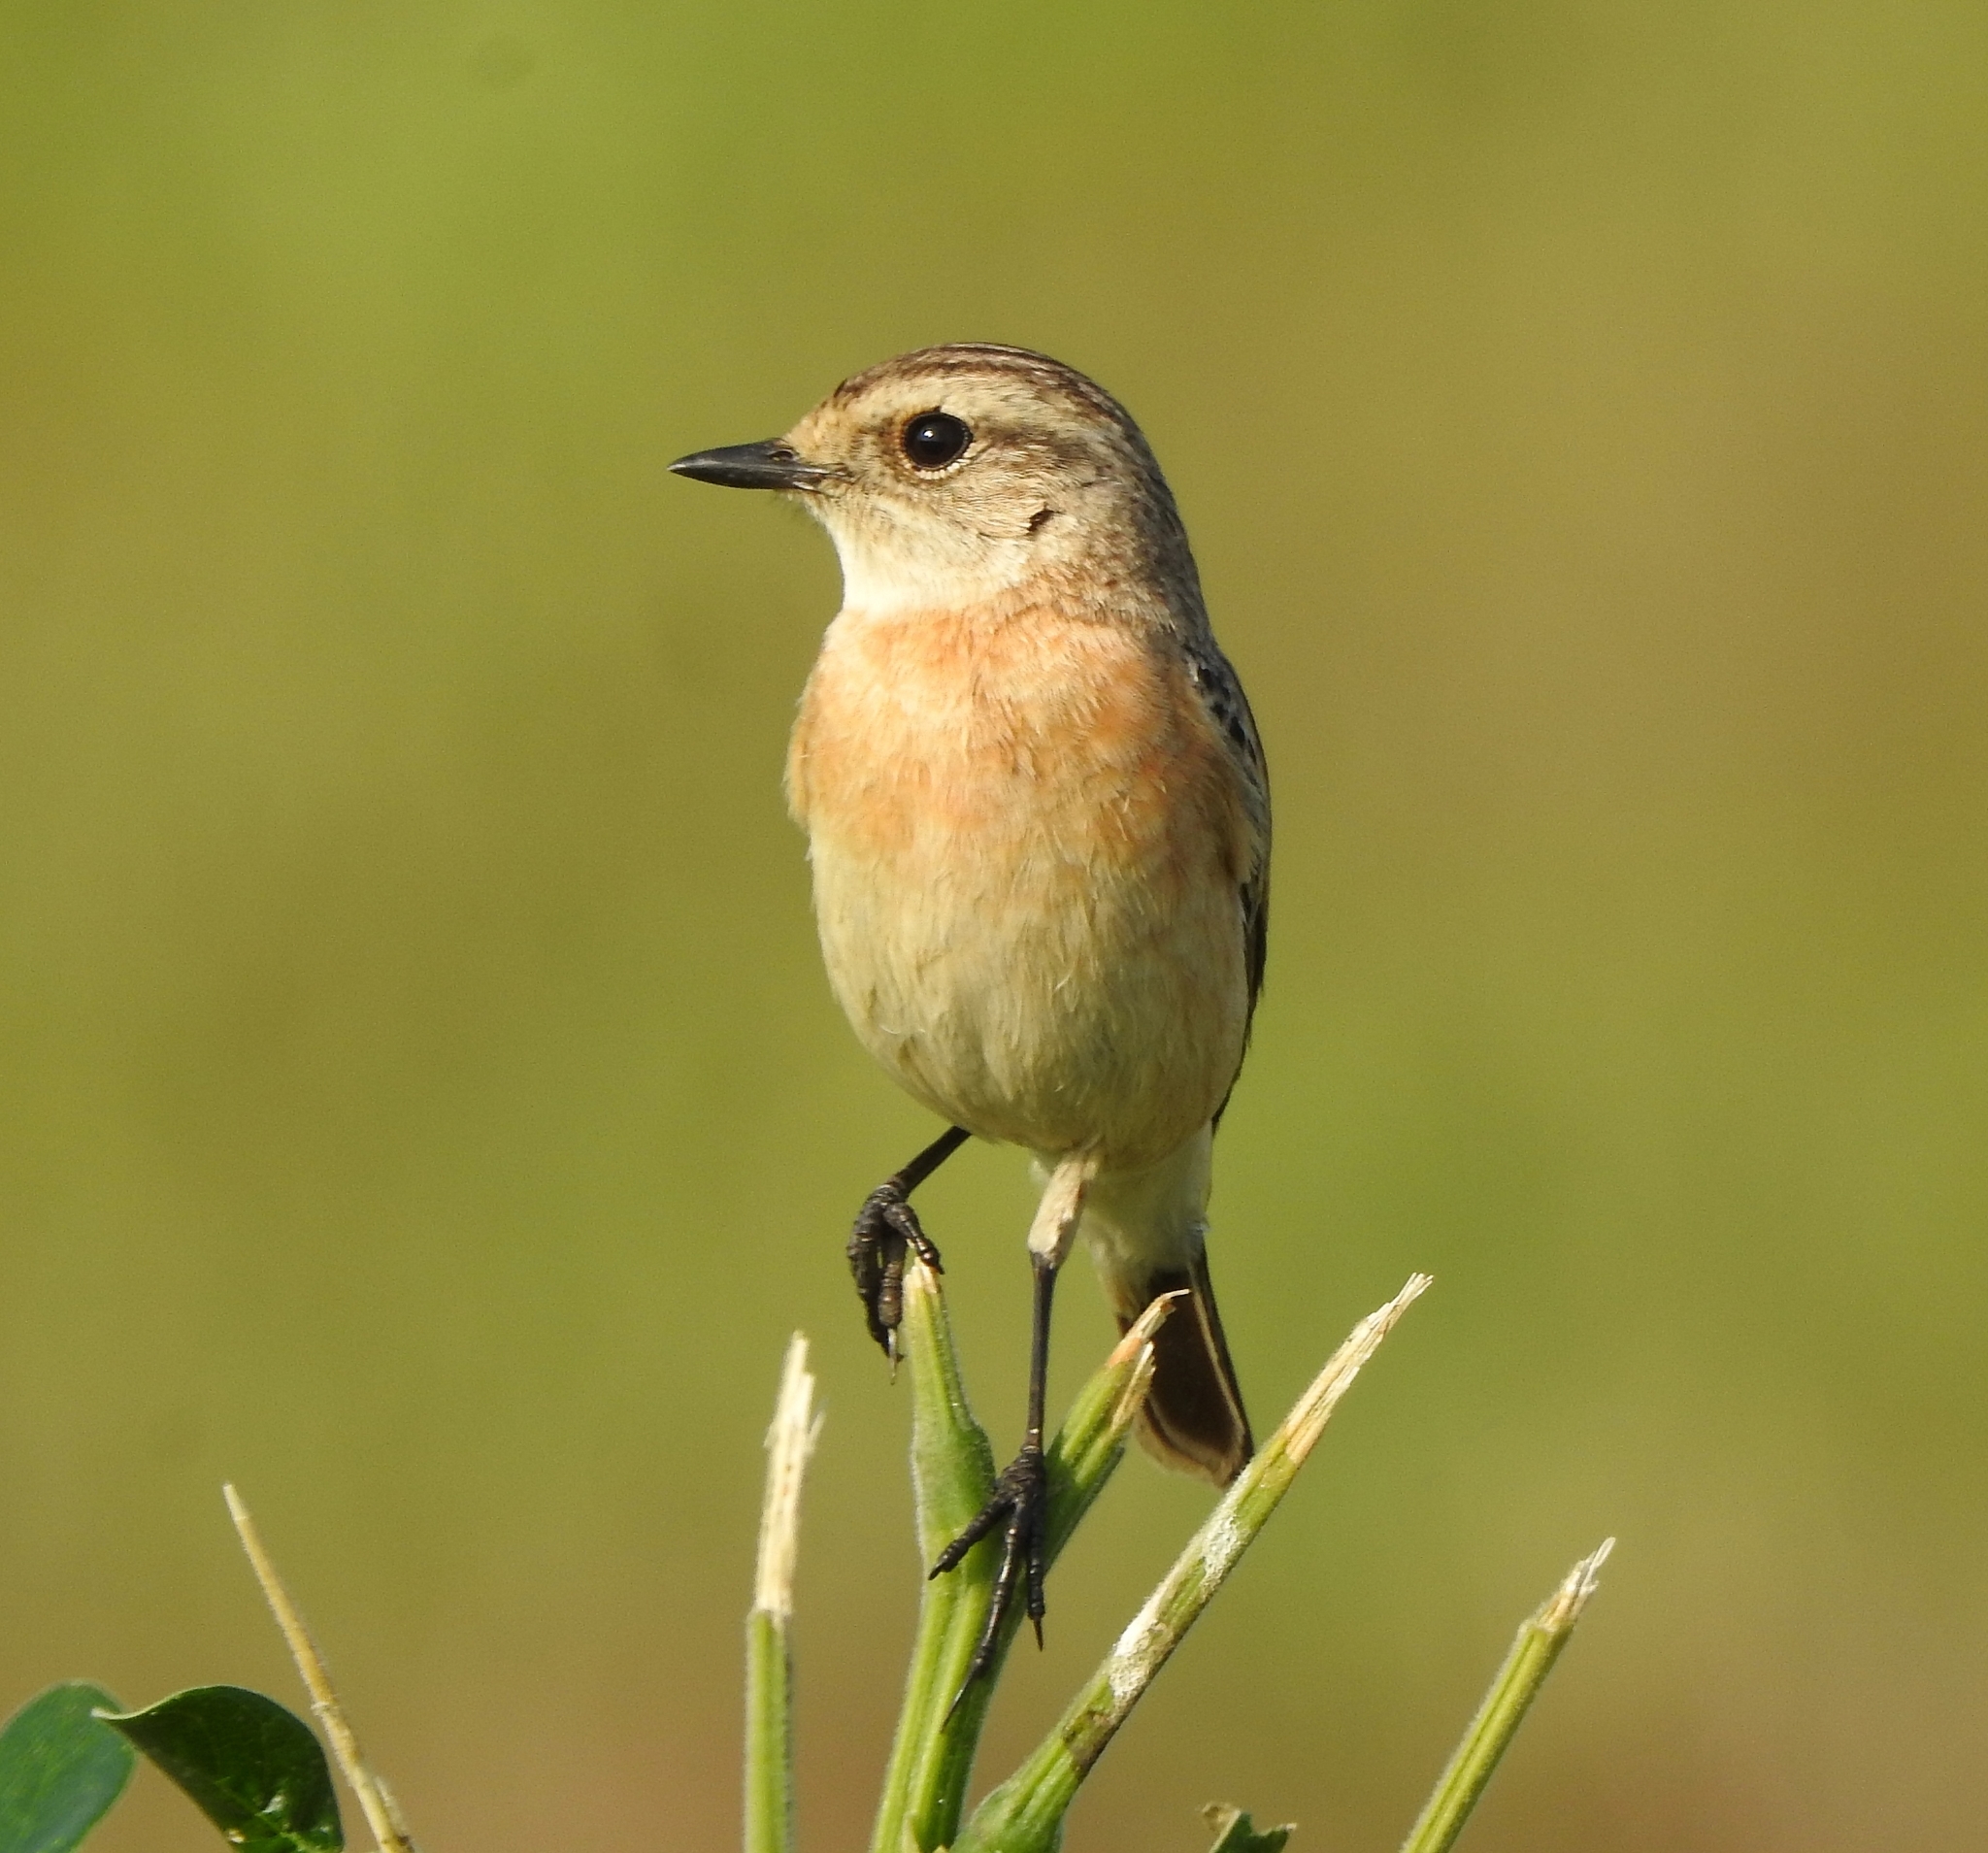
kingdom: Animalia
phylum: Chordata
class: Aves
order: Passeriformes
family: Muscicapidae
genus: Saxicola
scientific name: Saxicola maurus
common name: Siberian stonechat
